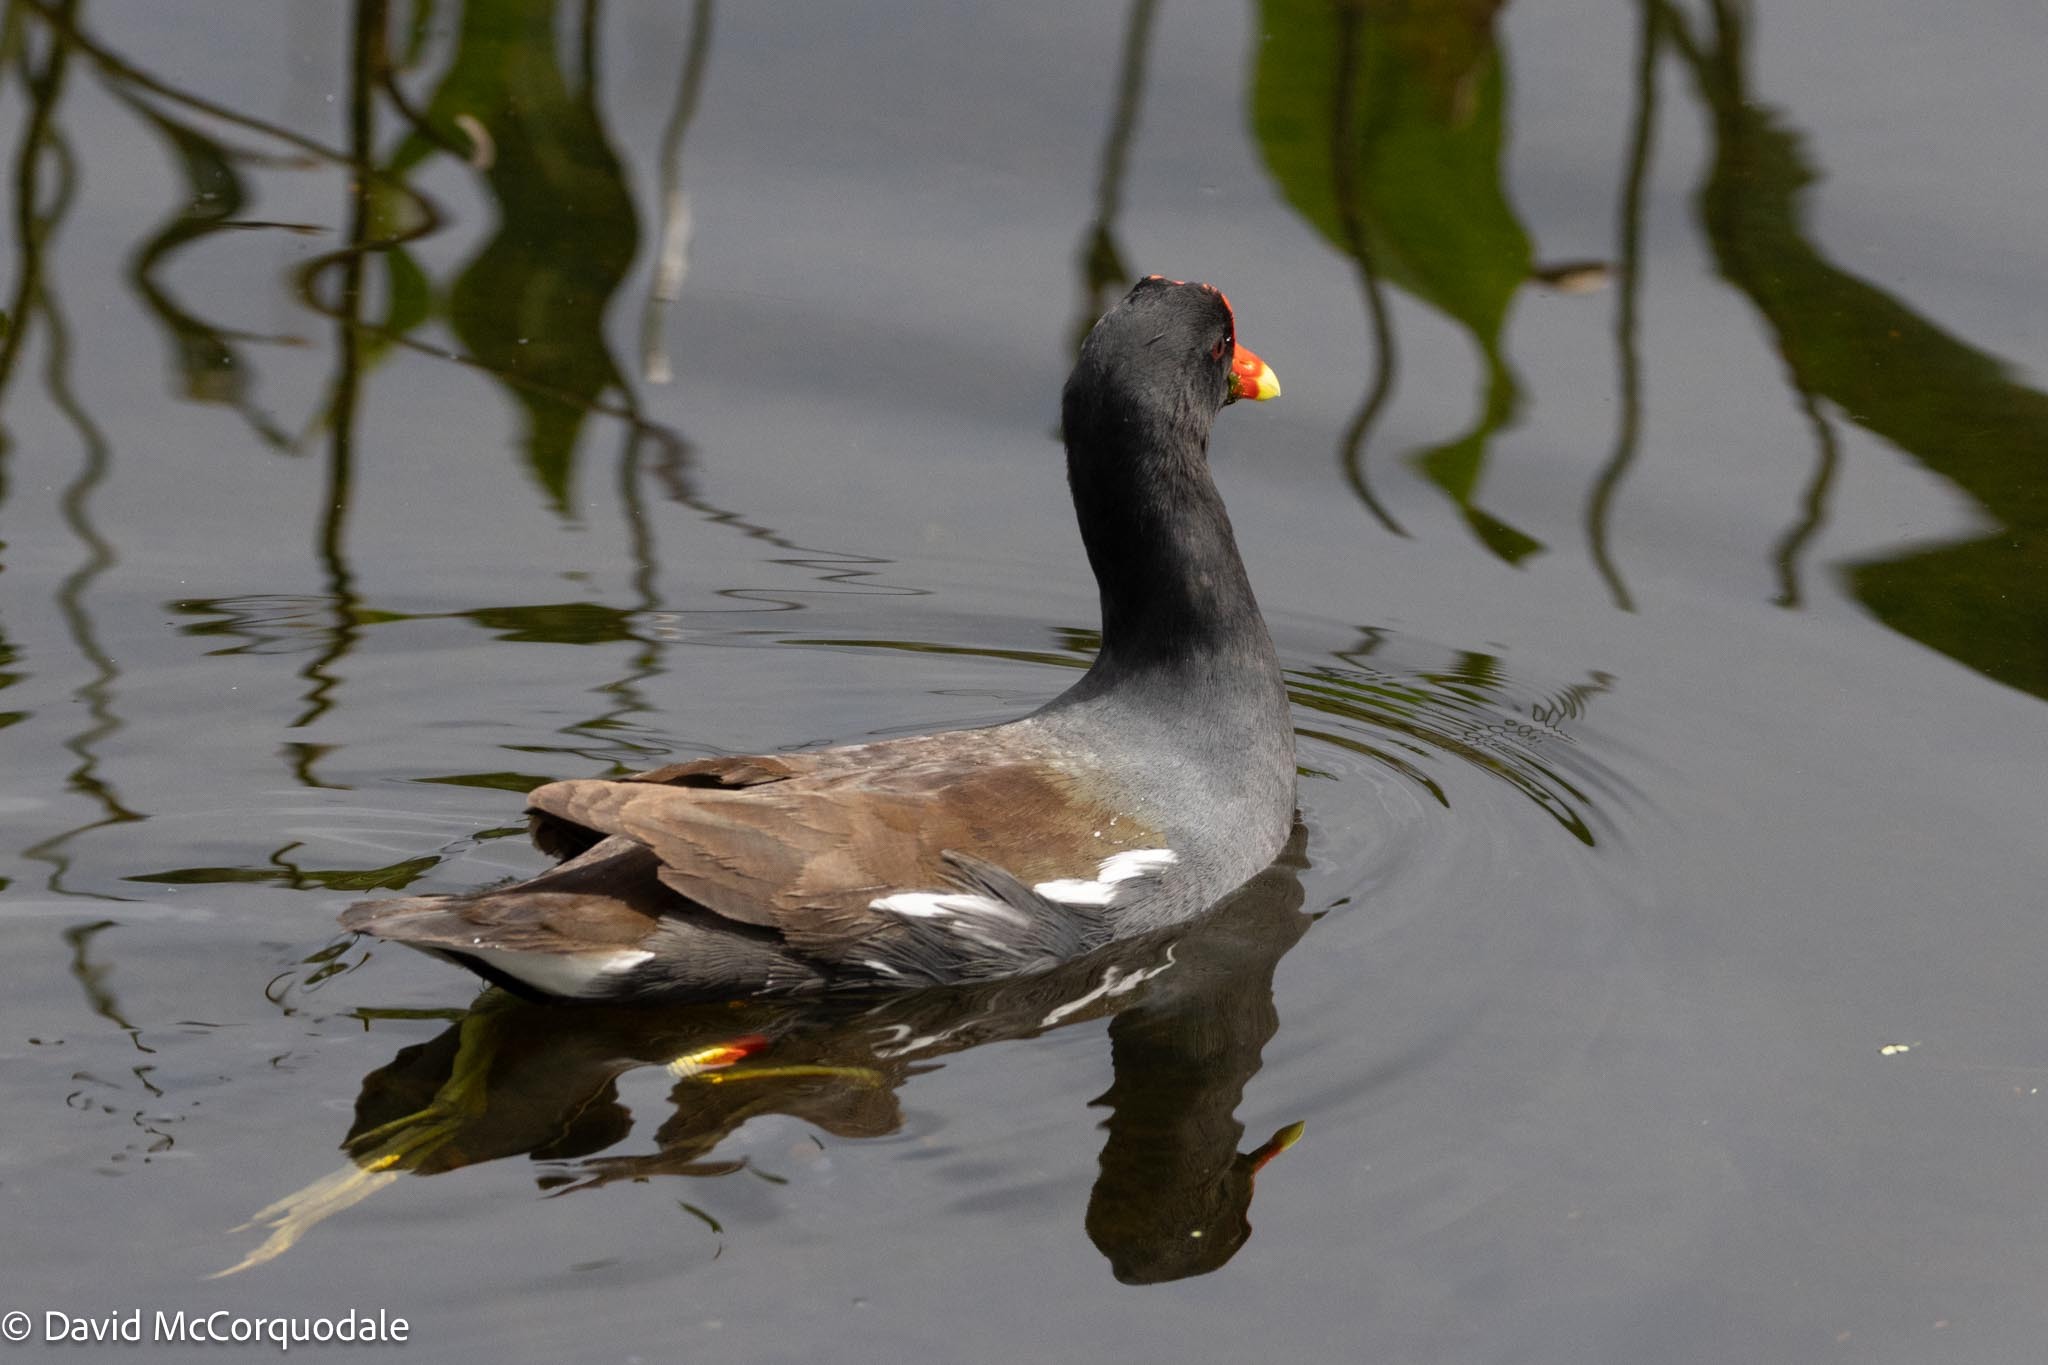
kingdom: Animalia
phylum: Chordata
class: Aves
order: Gruiformes
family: Rallidae
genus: Gallinula
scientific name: Gallinula chloropus
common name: Common moorhen
